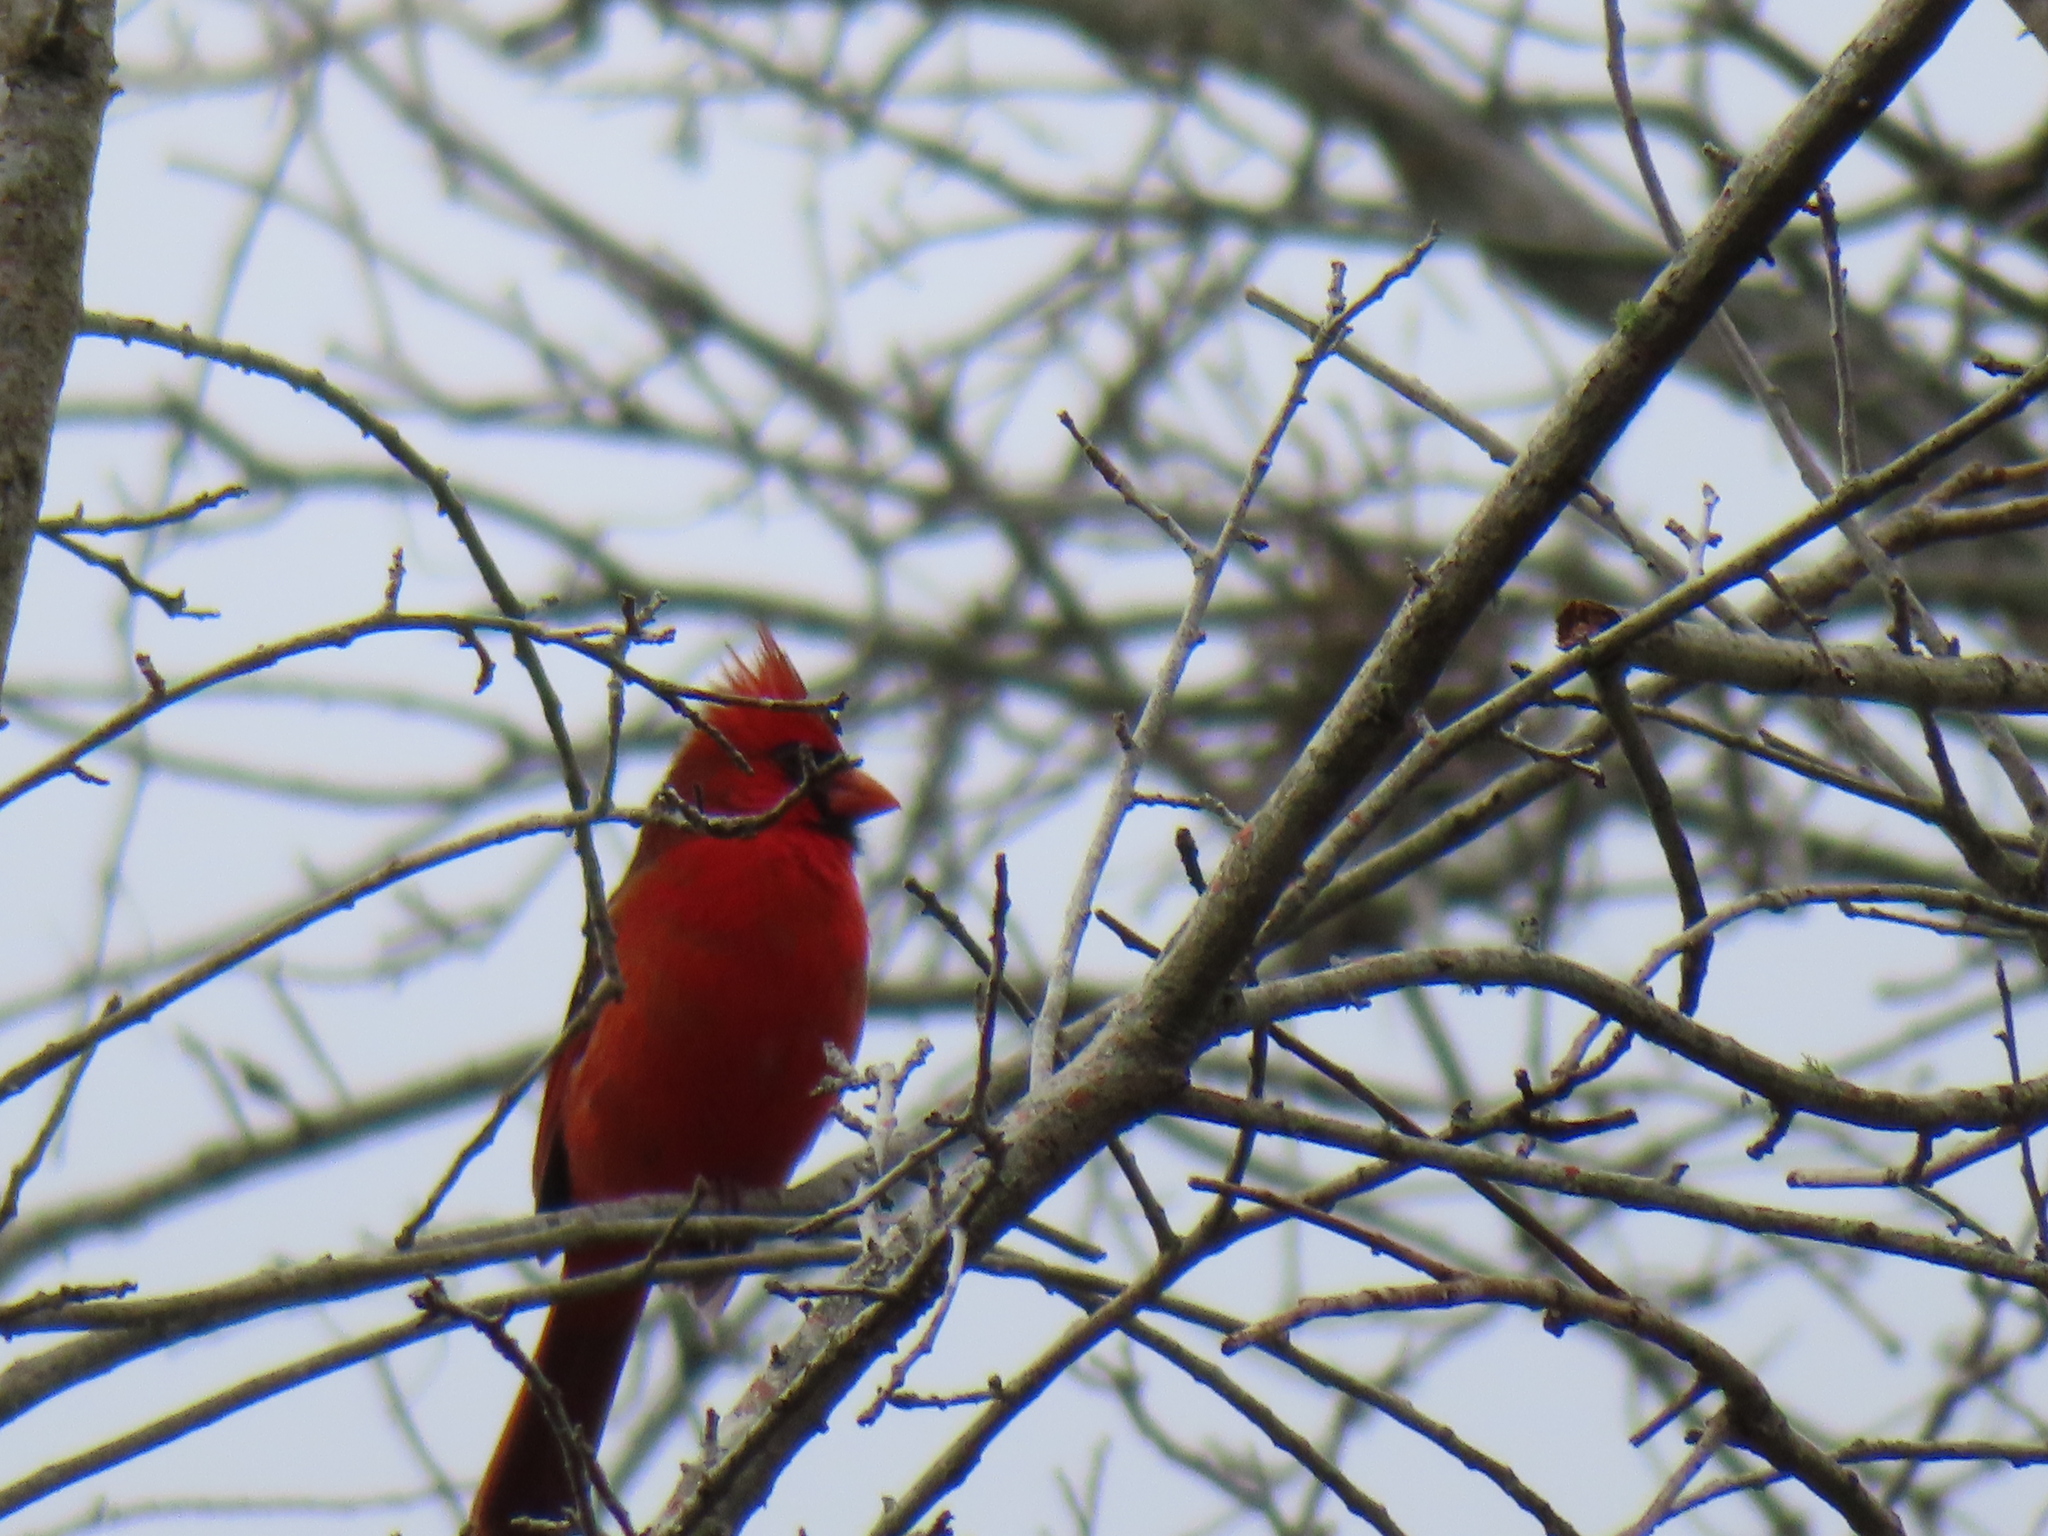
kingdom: Animalia
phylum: Chordata
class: Aves
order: Passeriformes
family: Cardinalidae
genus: Cardinalis
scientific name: Cardinalis cardinalis
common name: Northern cardinal
